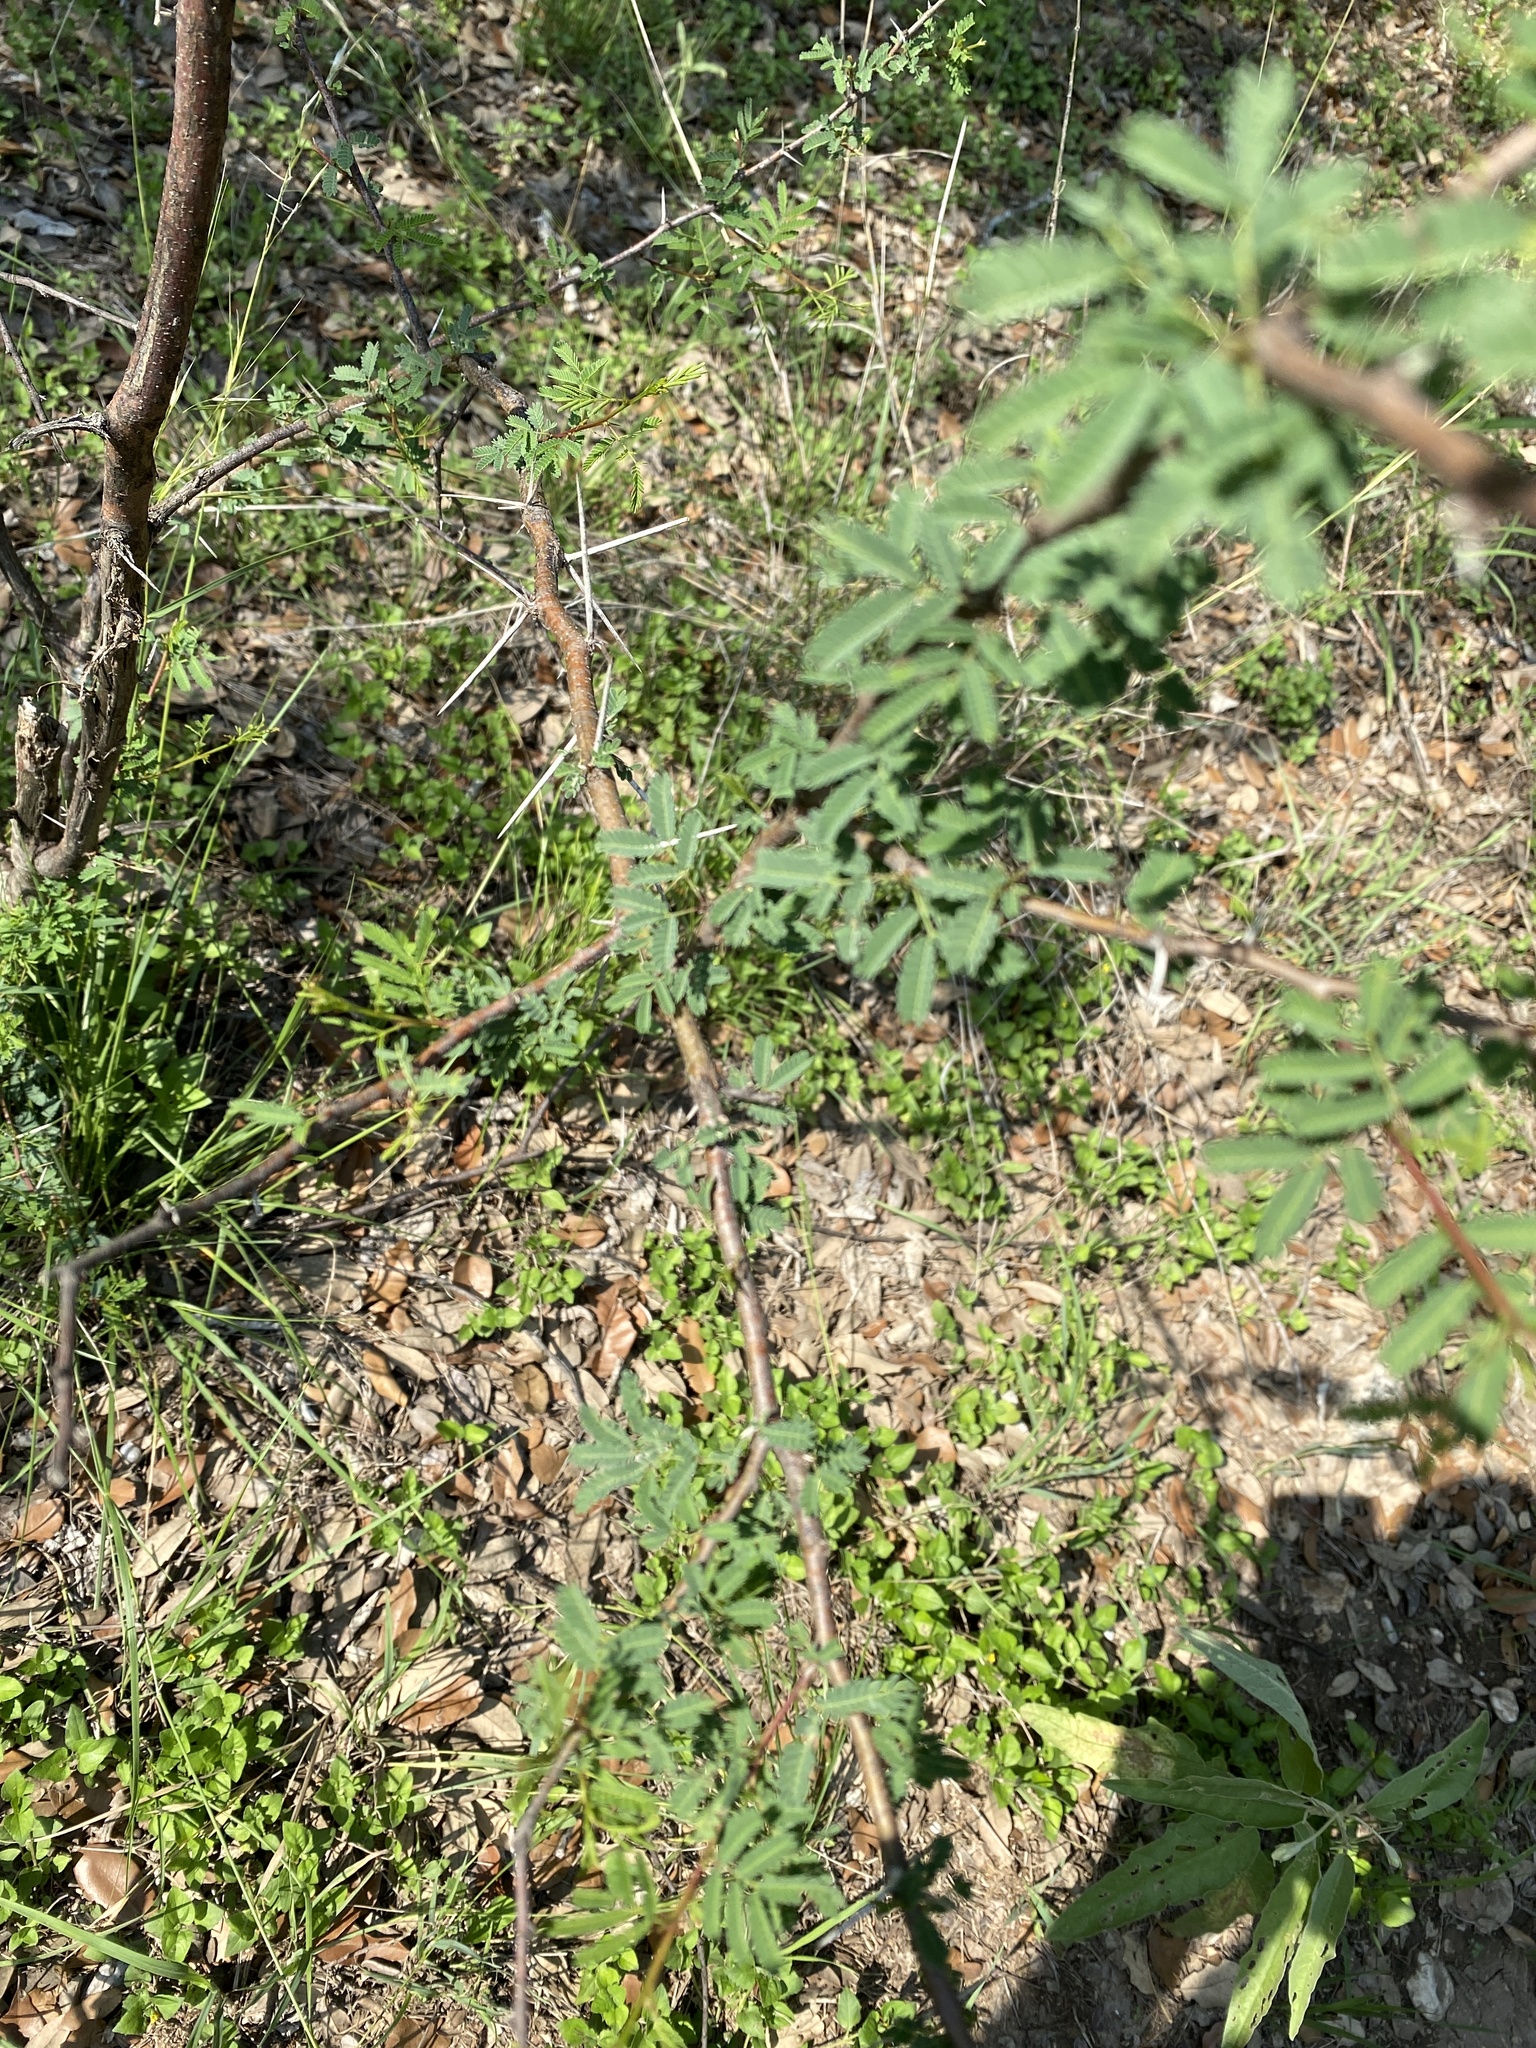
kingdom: Plantae
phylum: Tracheophyta
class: Magnoliopsida
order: Fabales
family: Fabaceae
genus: Vachellia
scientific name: Vachellia farnesiana
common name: Sweet acacia
